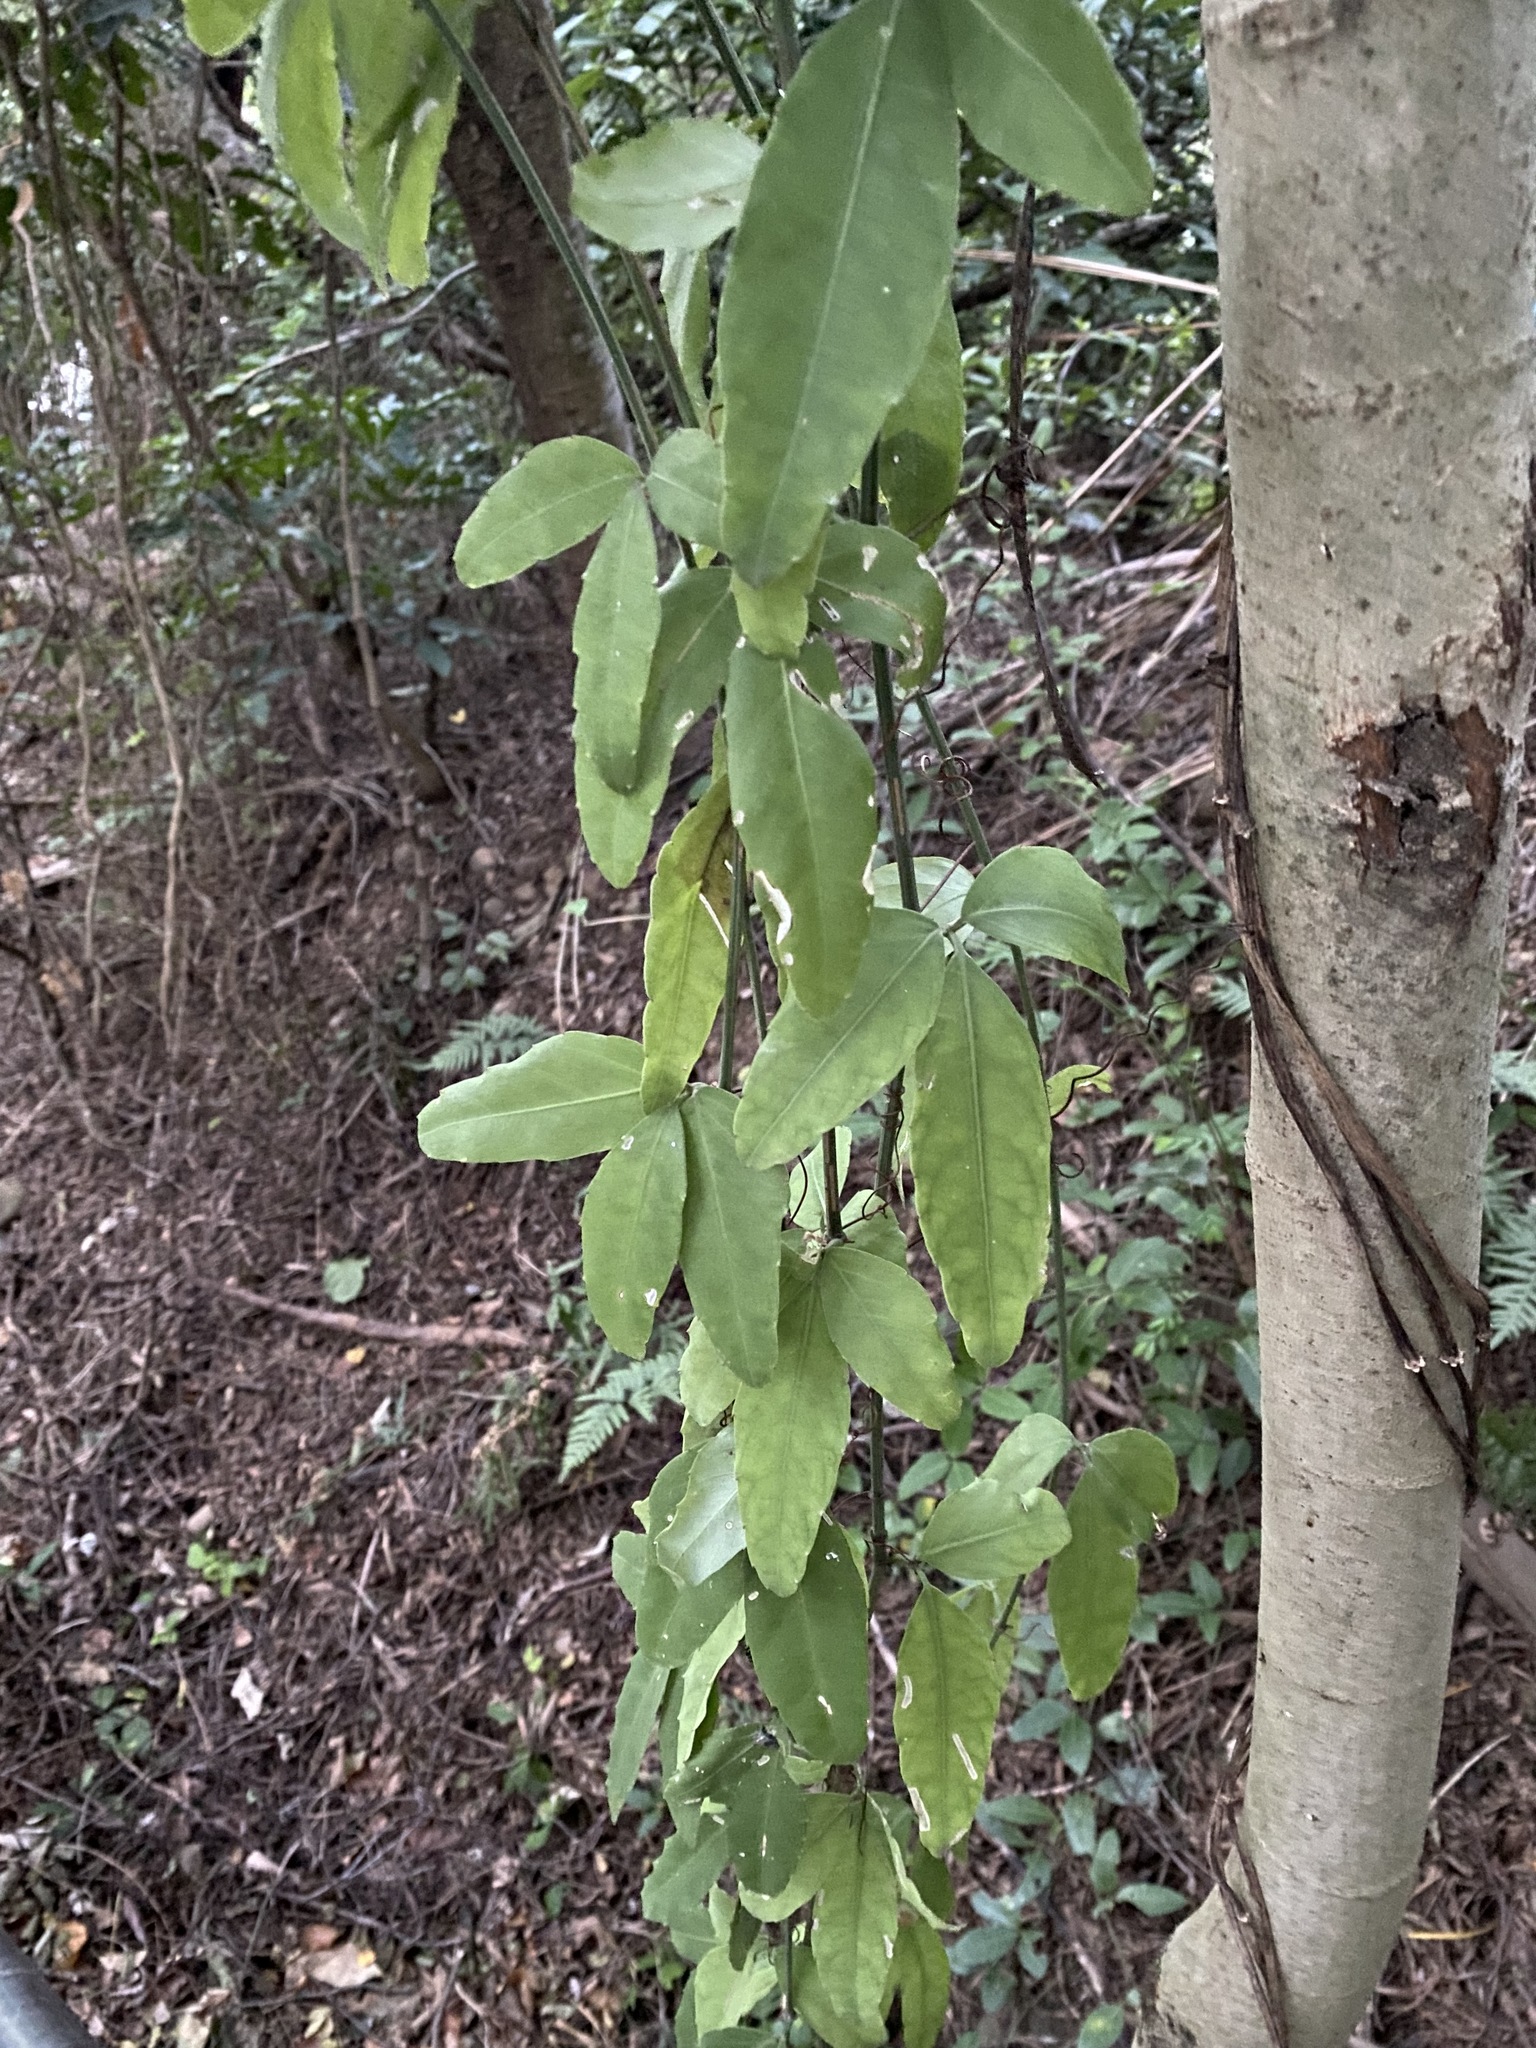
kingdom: Plantae
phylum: Tracheophyta
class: Magnoliopsida
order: Vitales
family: Vitaceae
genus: Tetrastigma
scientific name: Tetrastigma formosanum
